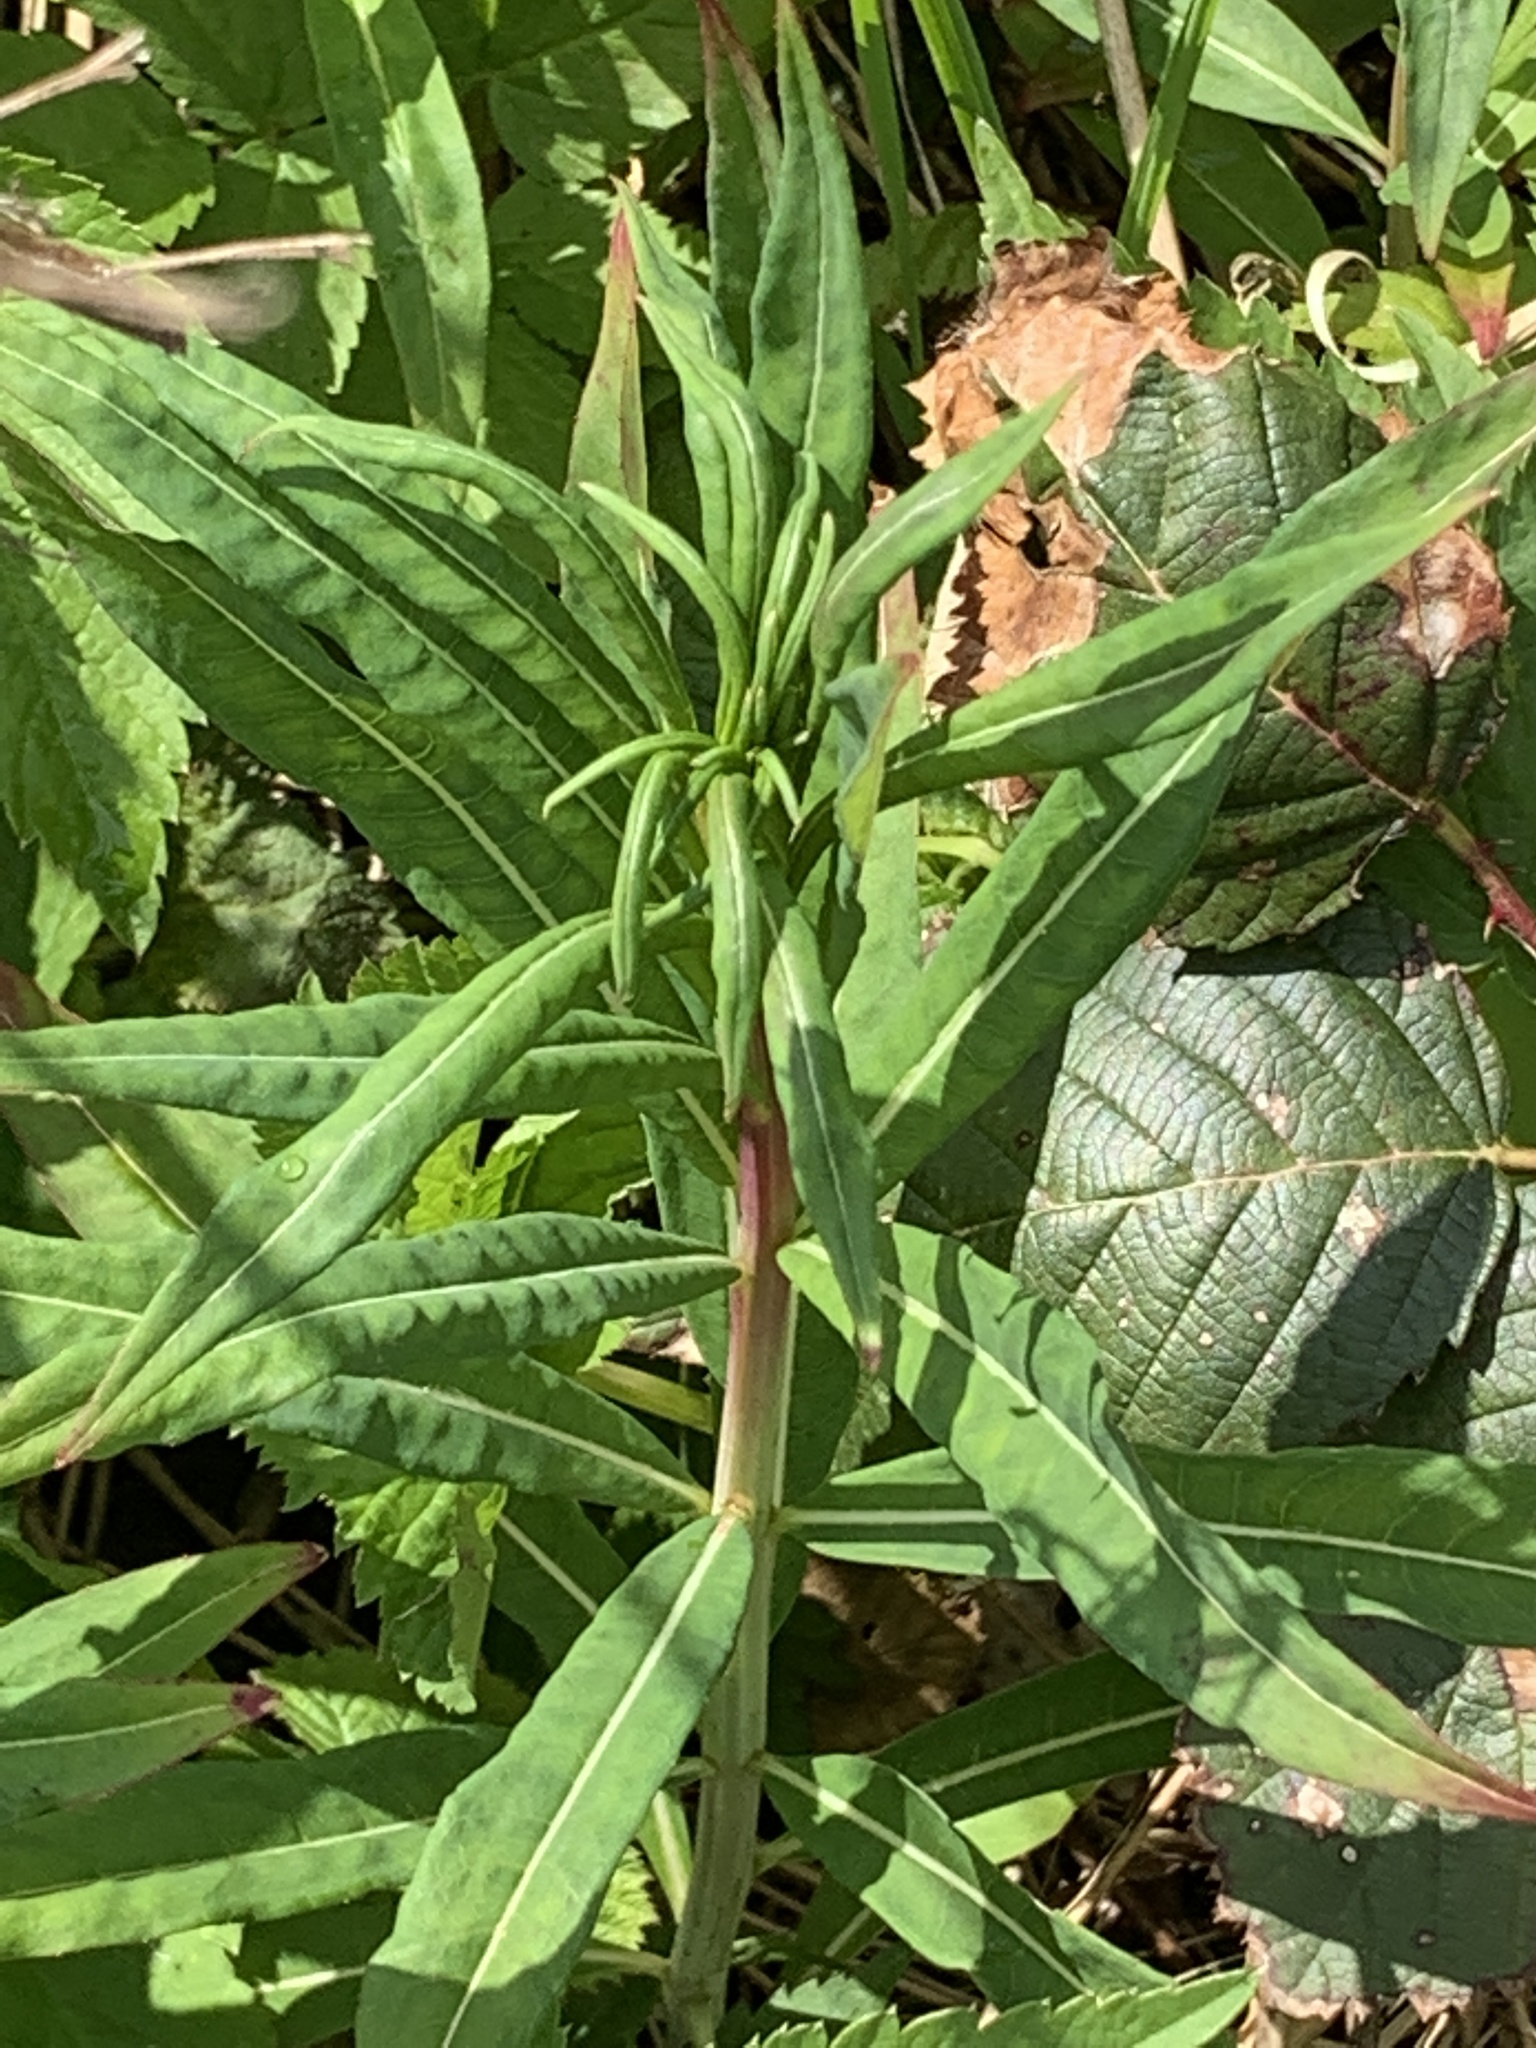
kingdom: Plantae
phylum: Tracheophyta
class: Magnoliopsida
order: Myrtales
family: Onagraceae
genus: Chamaenerion
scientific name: Chamaenerion angustifolium
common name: Fireweed
